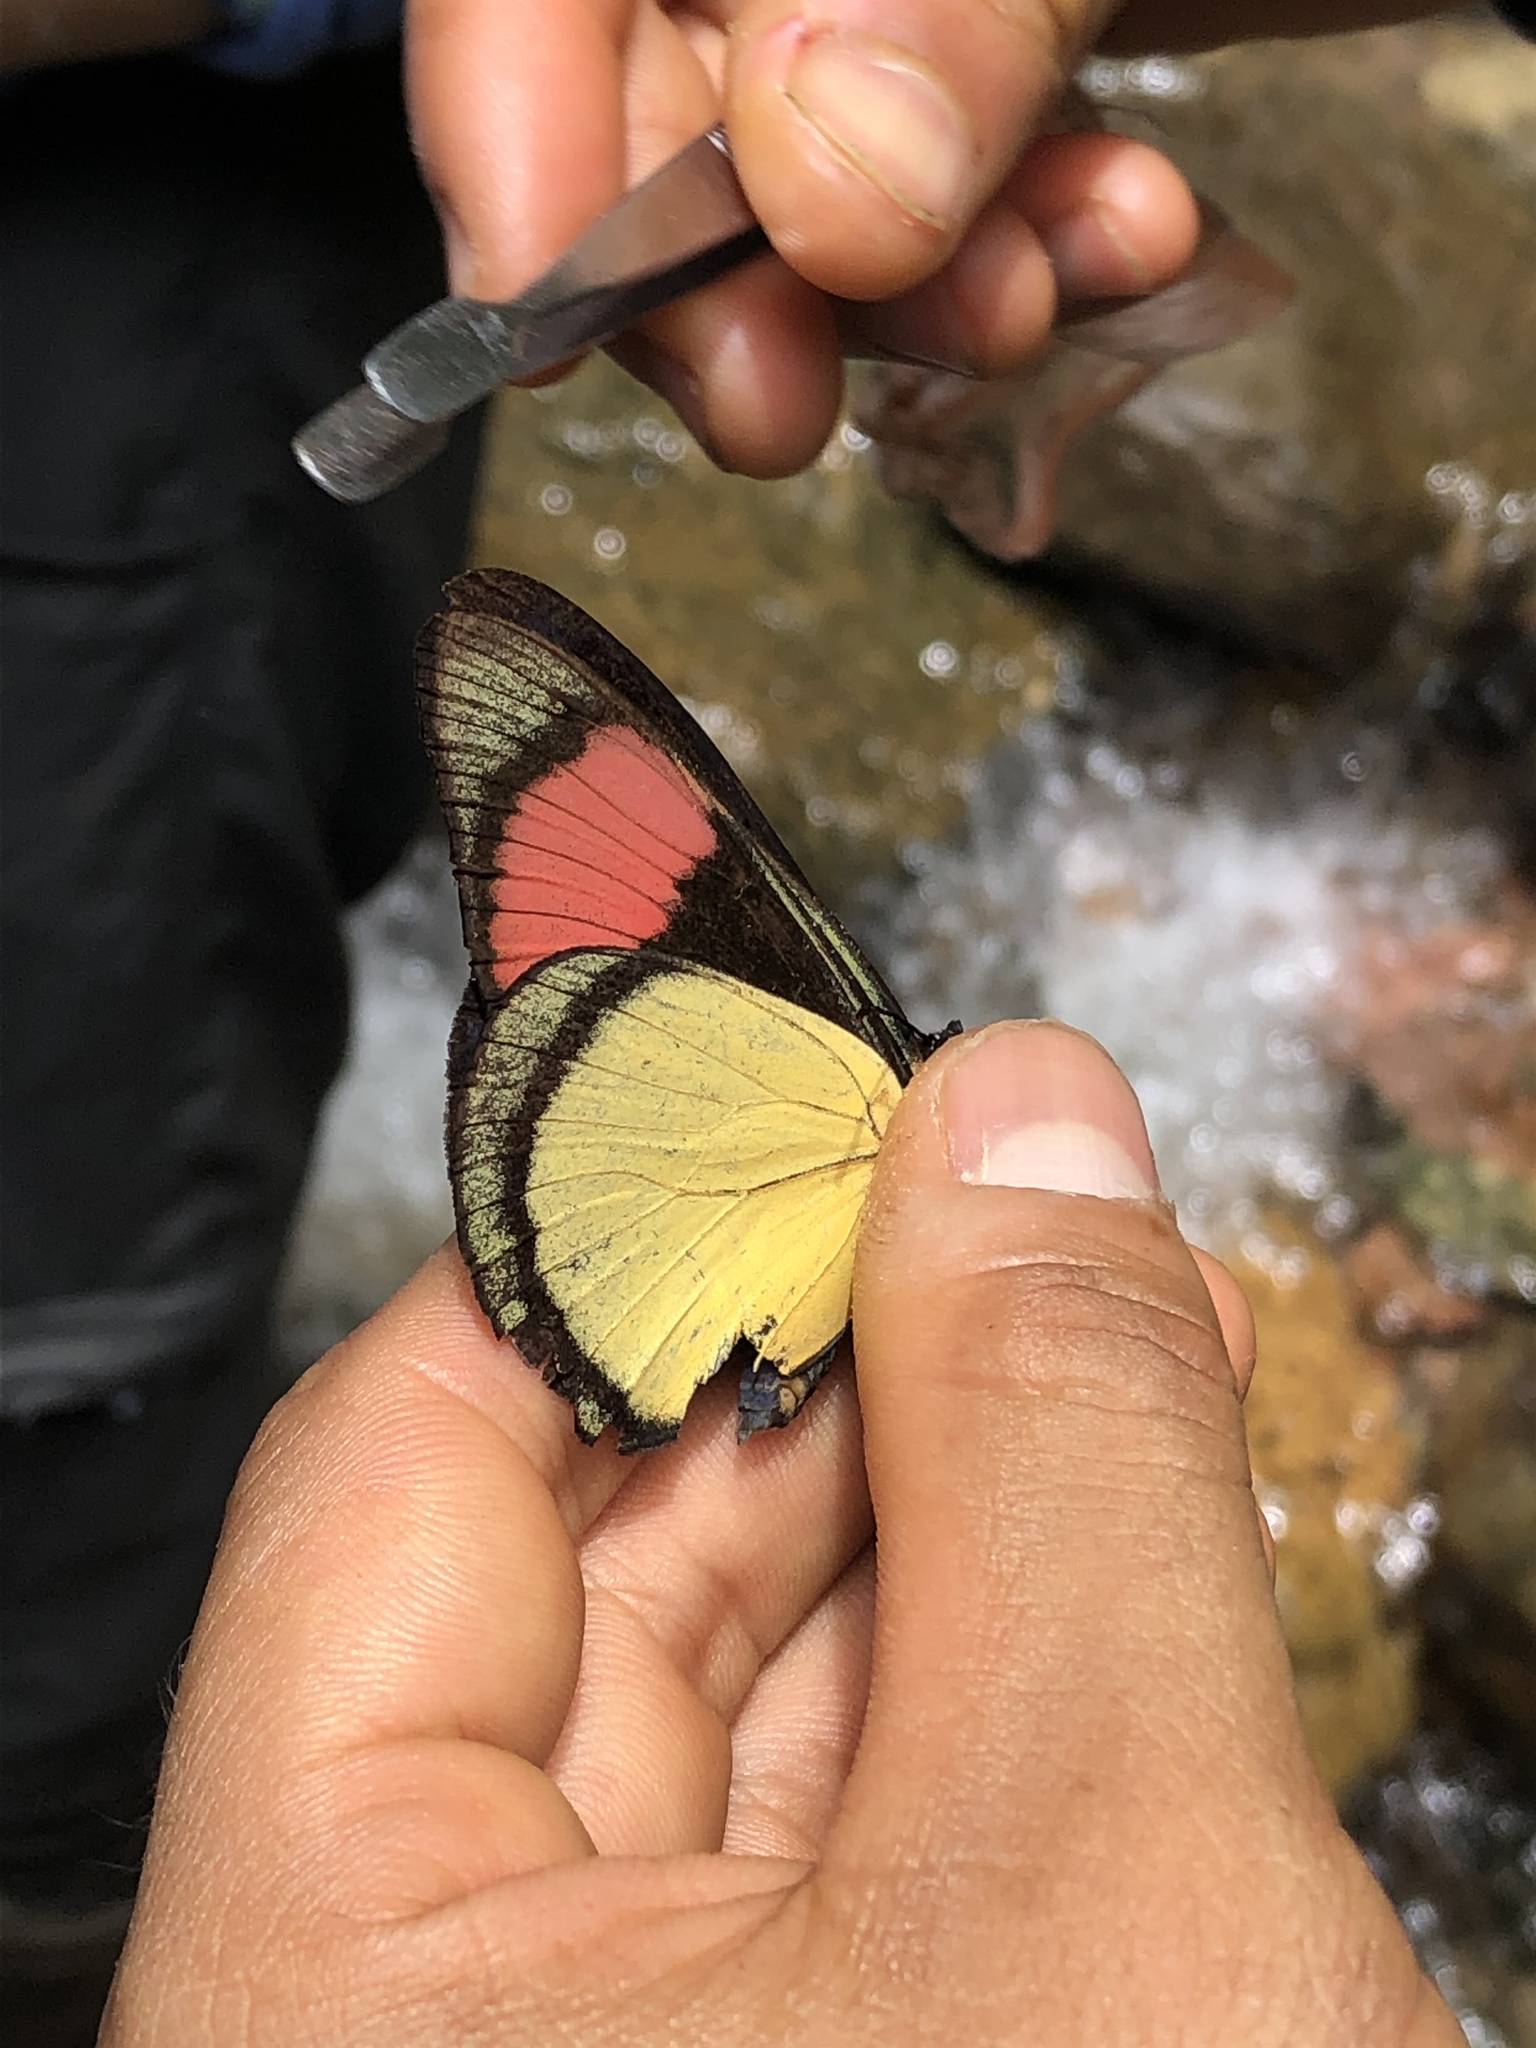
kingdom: Animalia
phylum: Arthropoda
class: Insecta
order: Lepidoptera
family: Nymphalidae
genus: Batesia
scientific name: Batesia hypochlora
